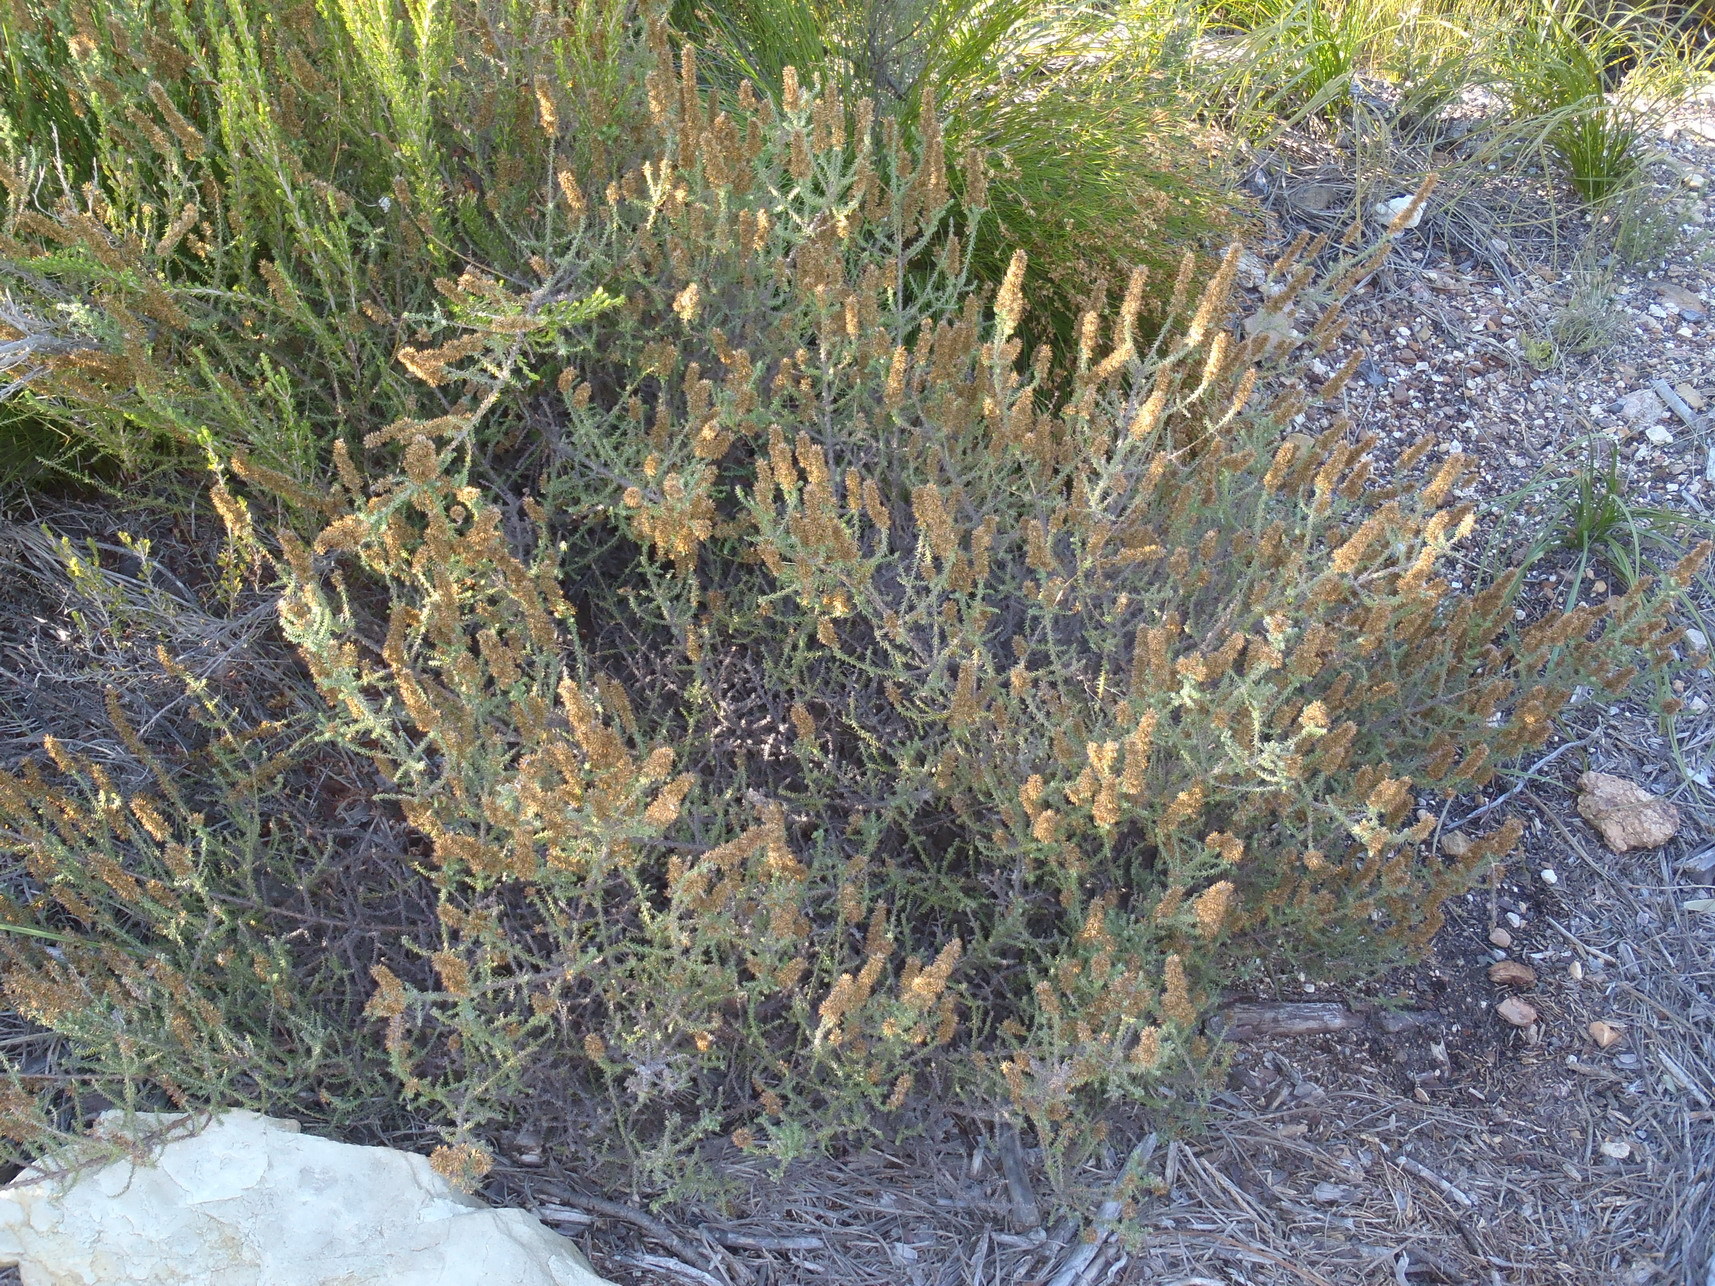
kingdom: Plantae
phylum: Tracheophyta
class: Magnoliopsida
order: Asterales
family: Asteraceae
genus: Seriphium
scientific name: Seriphium plumosum
